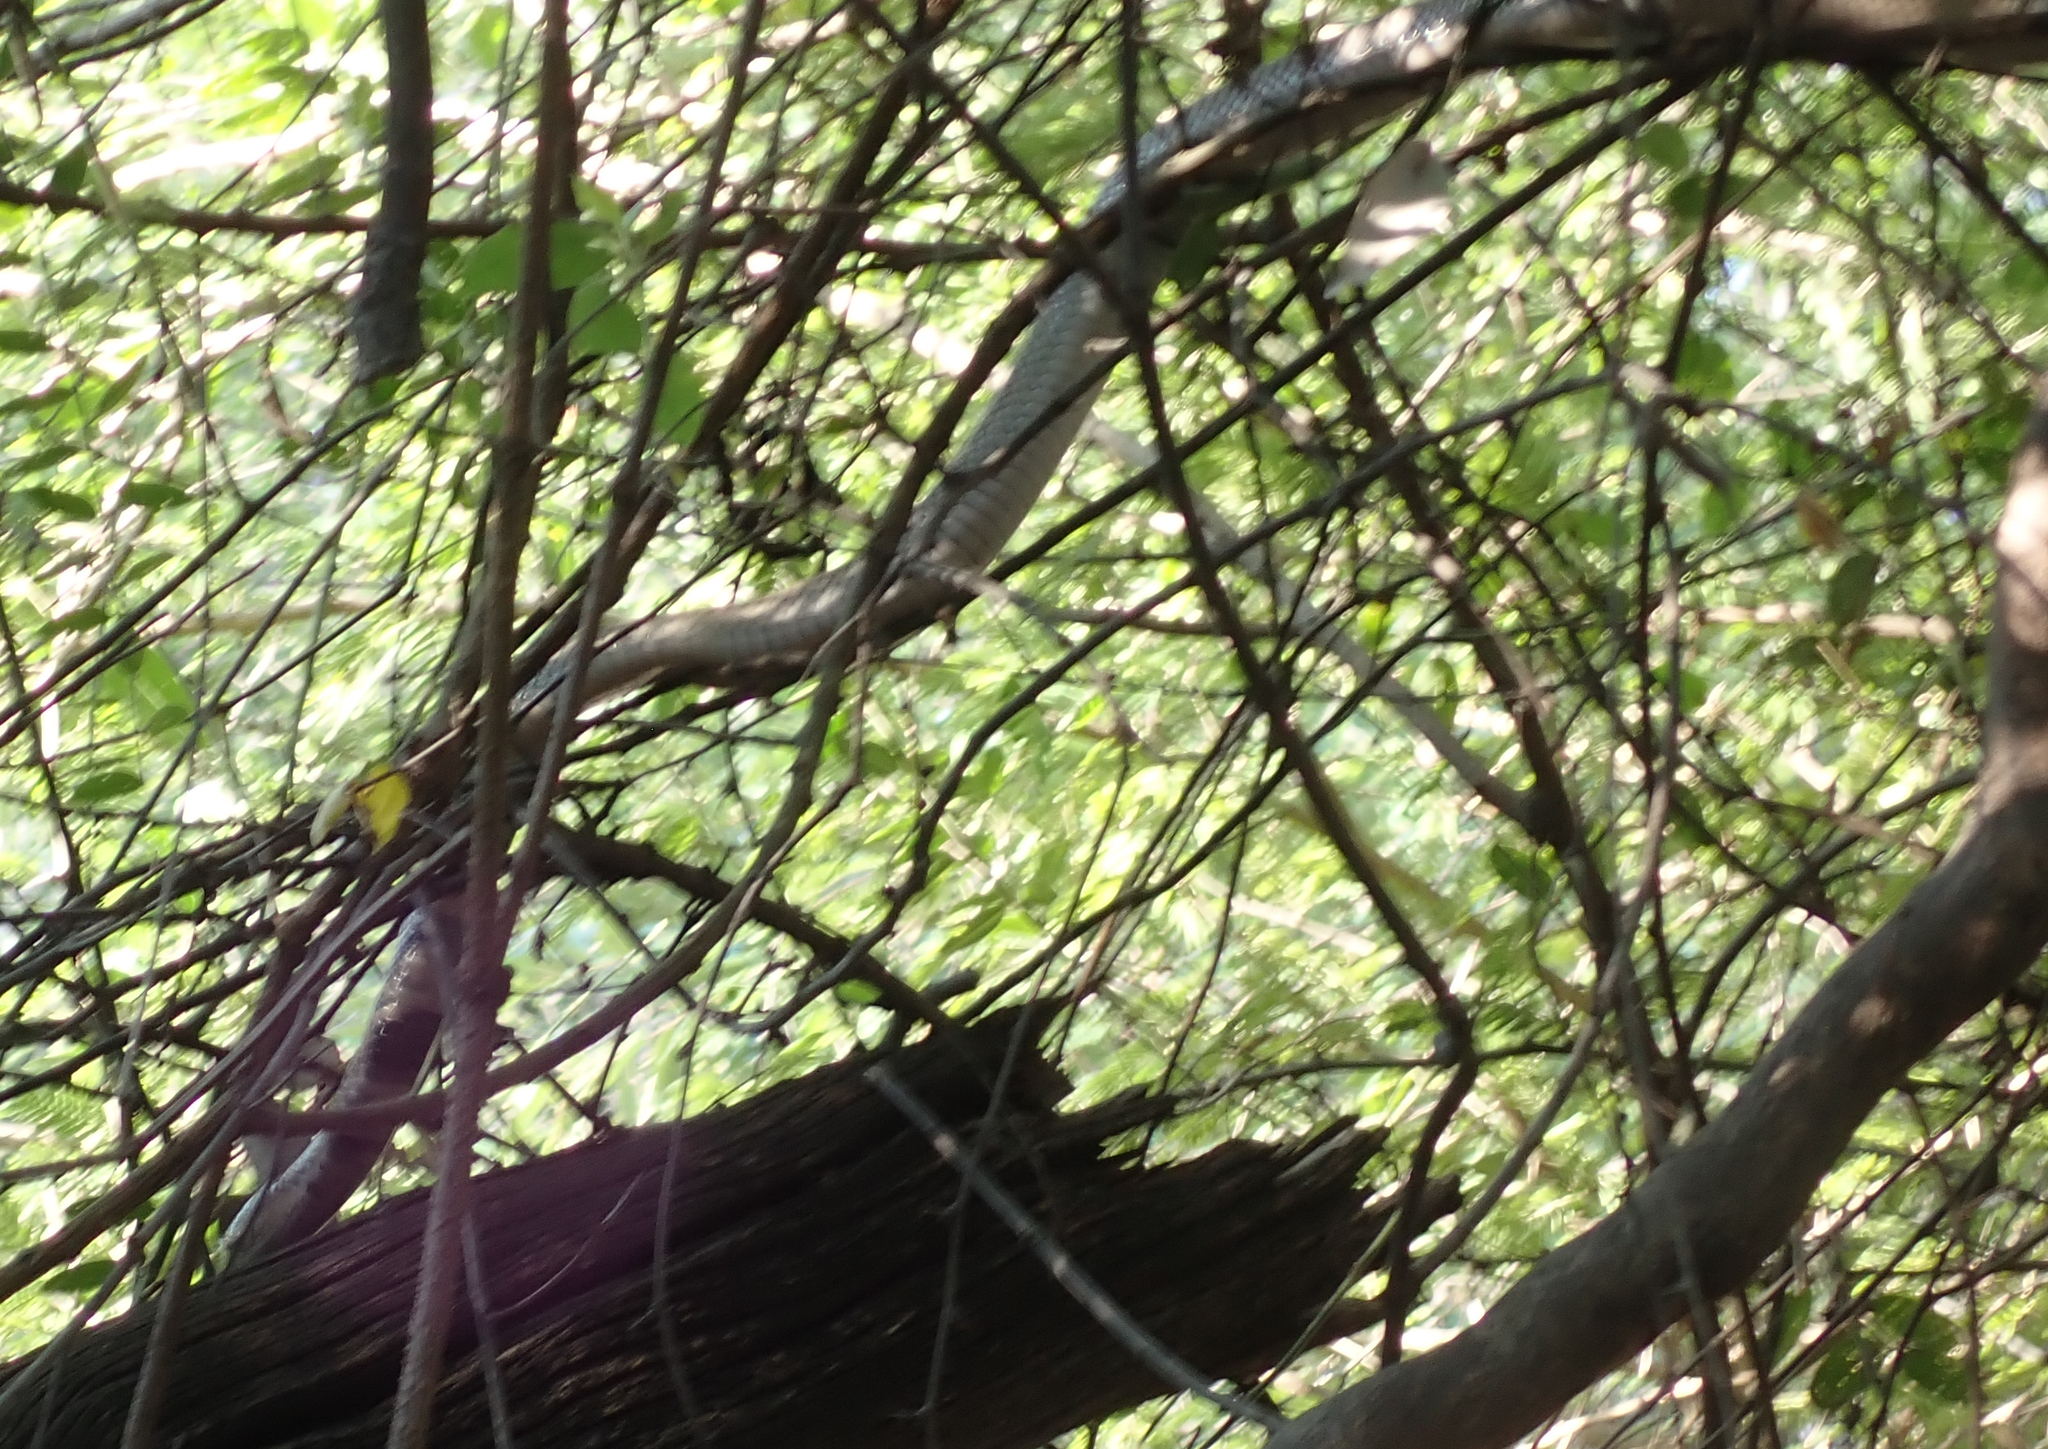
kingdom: Animalia
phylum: Chordata
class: Squamata
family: Elapidae
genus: Naja
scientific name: Naja mossambica
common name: Mozambique spitting cobra
